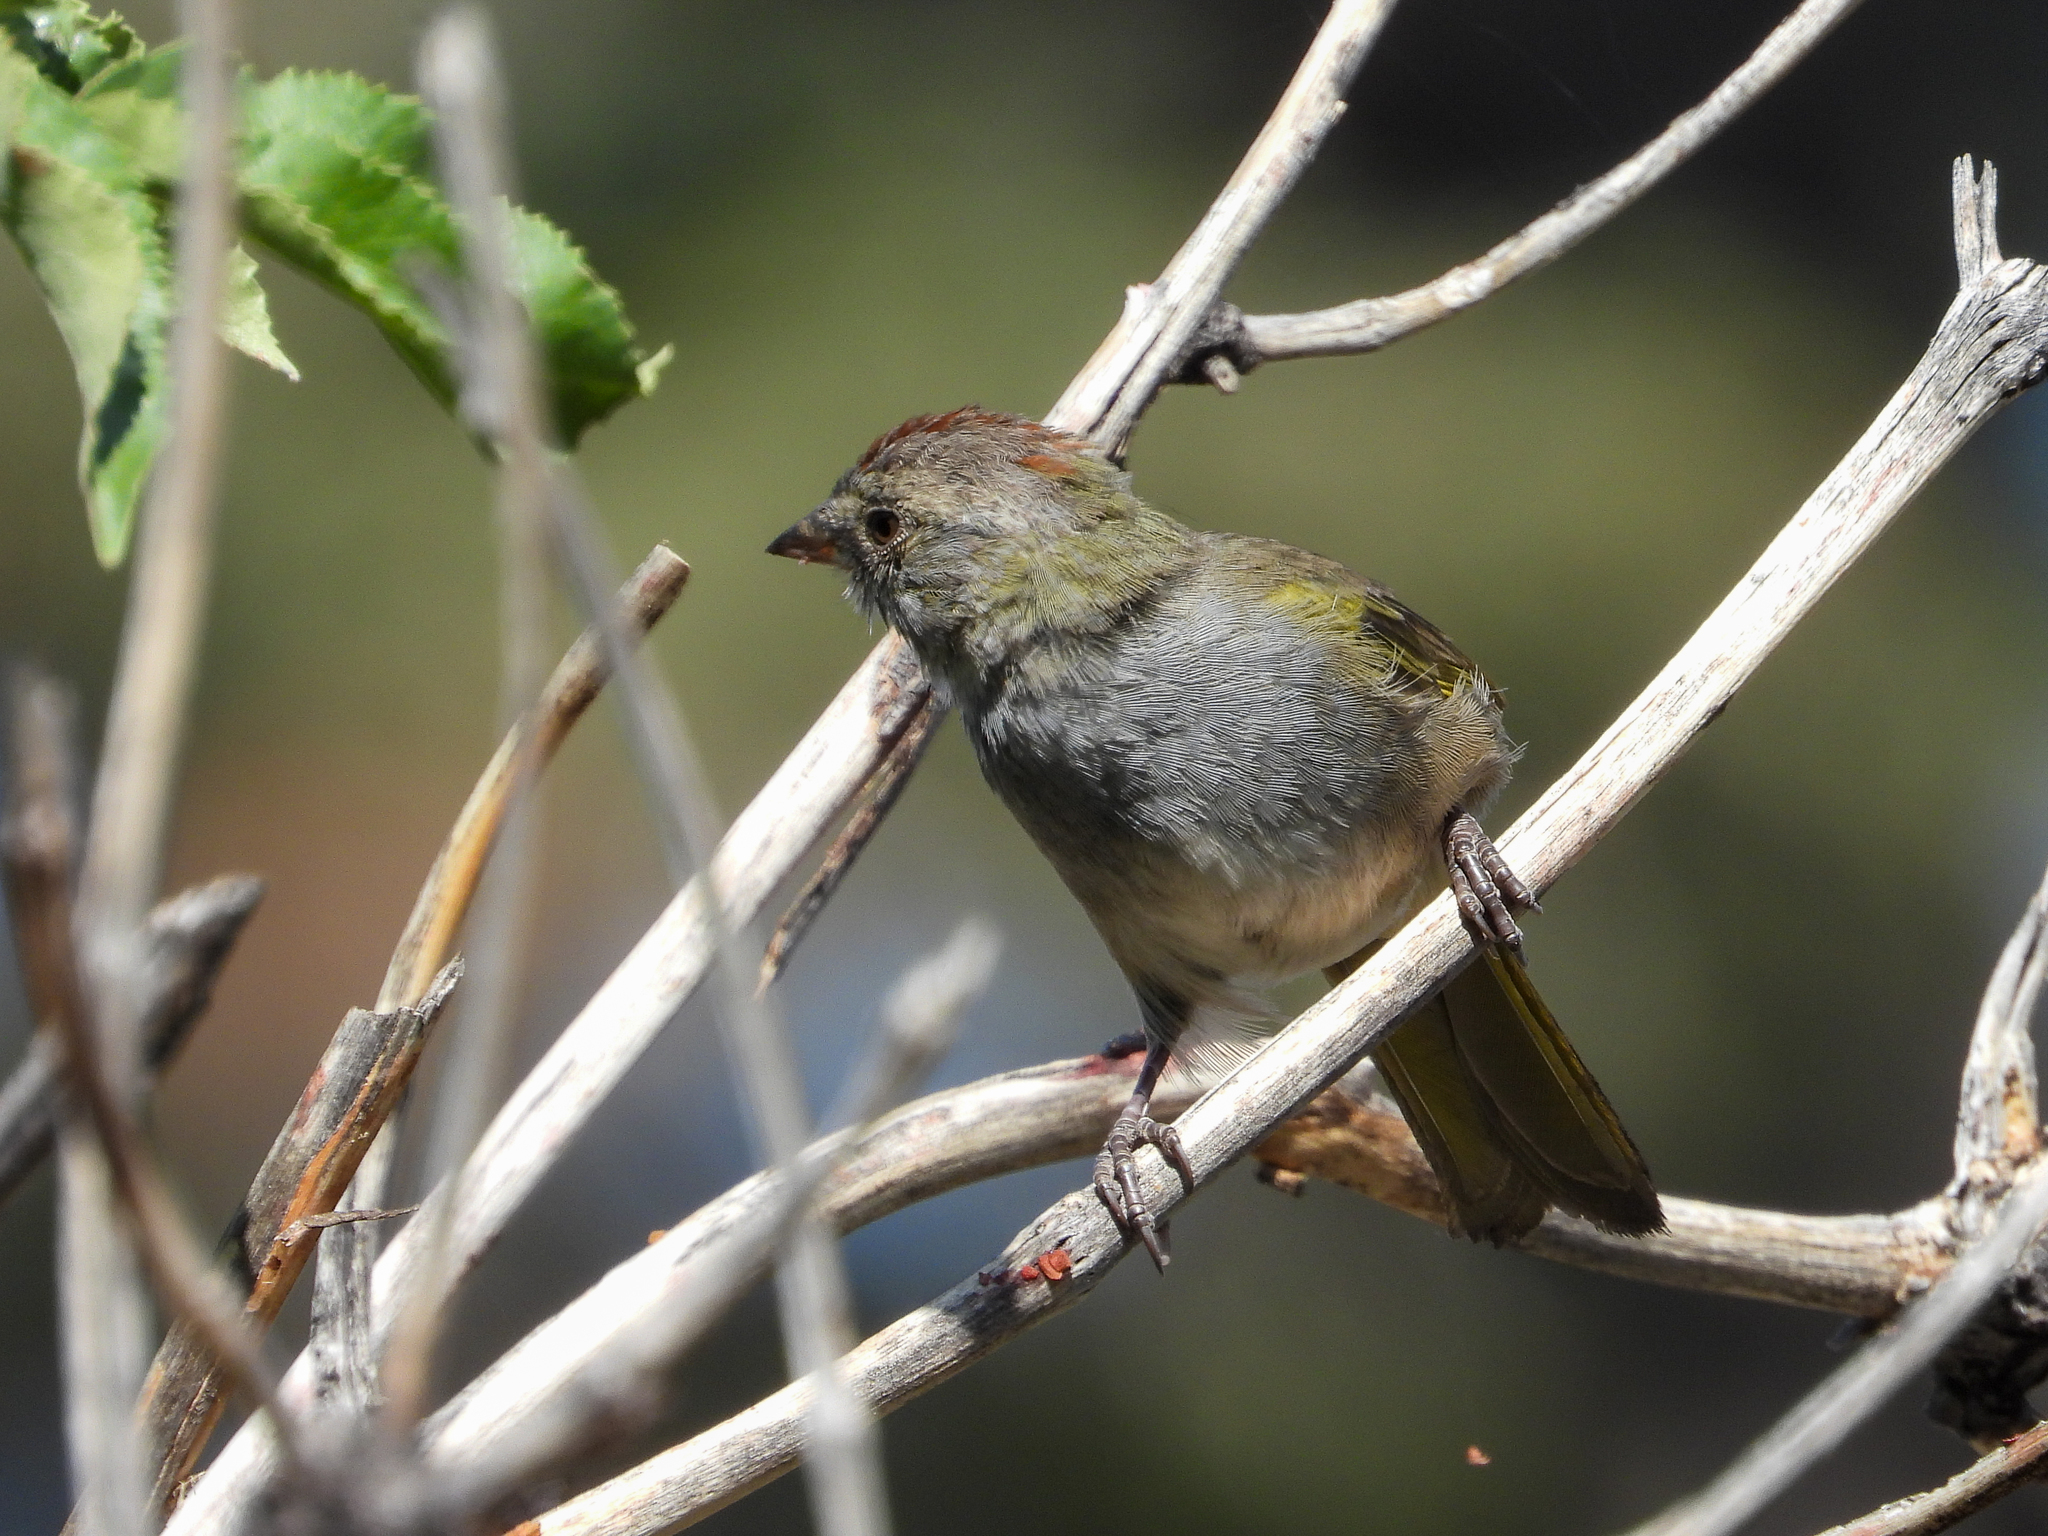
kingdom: Animalia
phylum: Chordata
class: Aves
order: Passeriformes
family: Passerellidae
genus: Pipilo
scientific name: Pipilo chlorurus
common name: Green-tailed towhee
